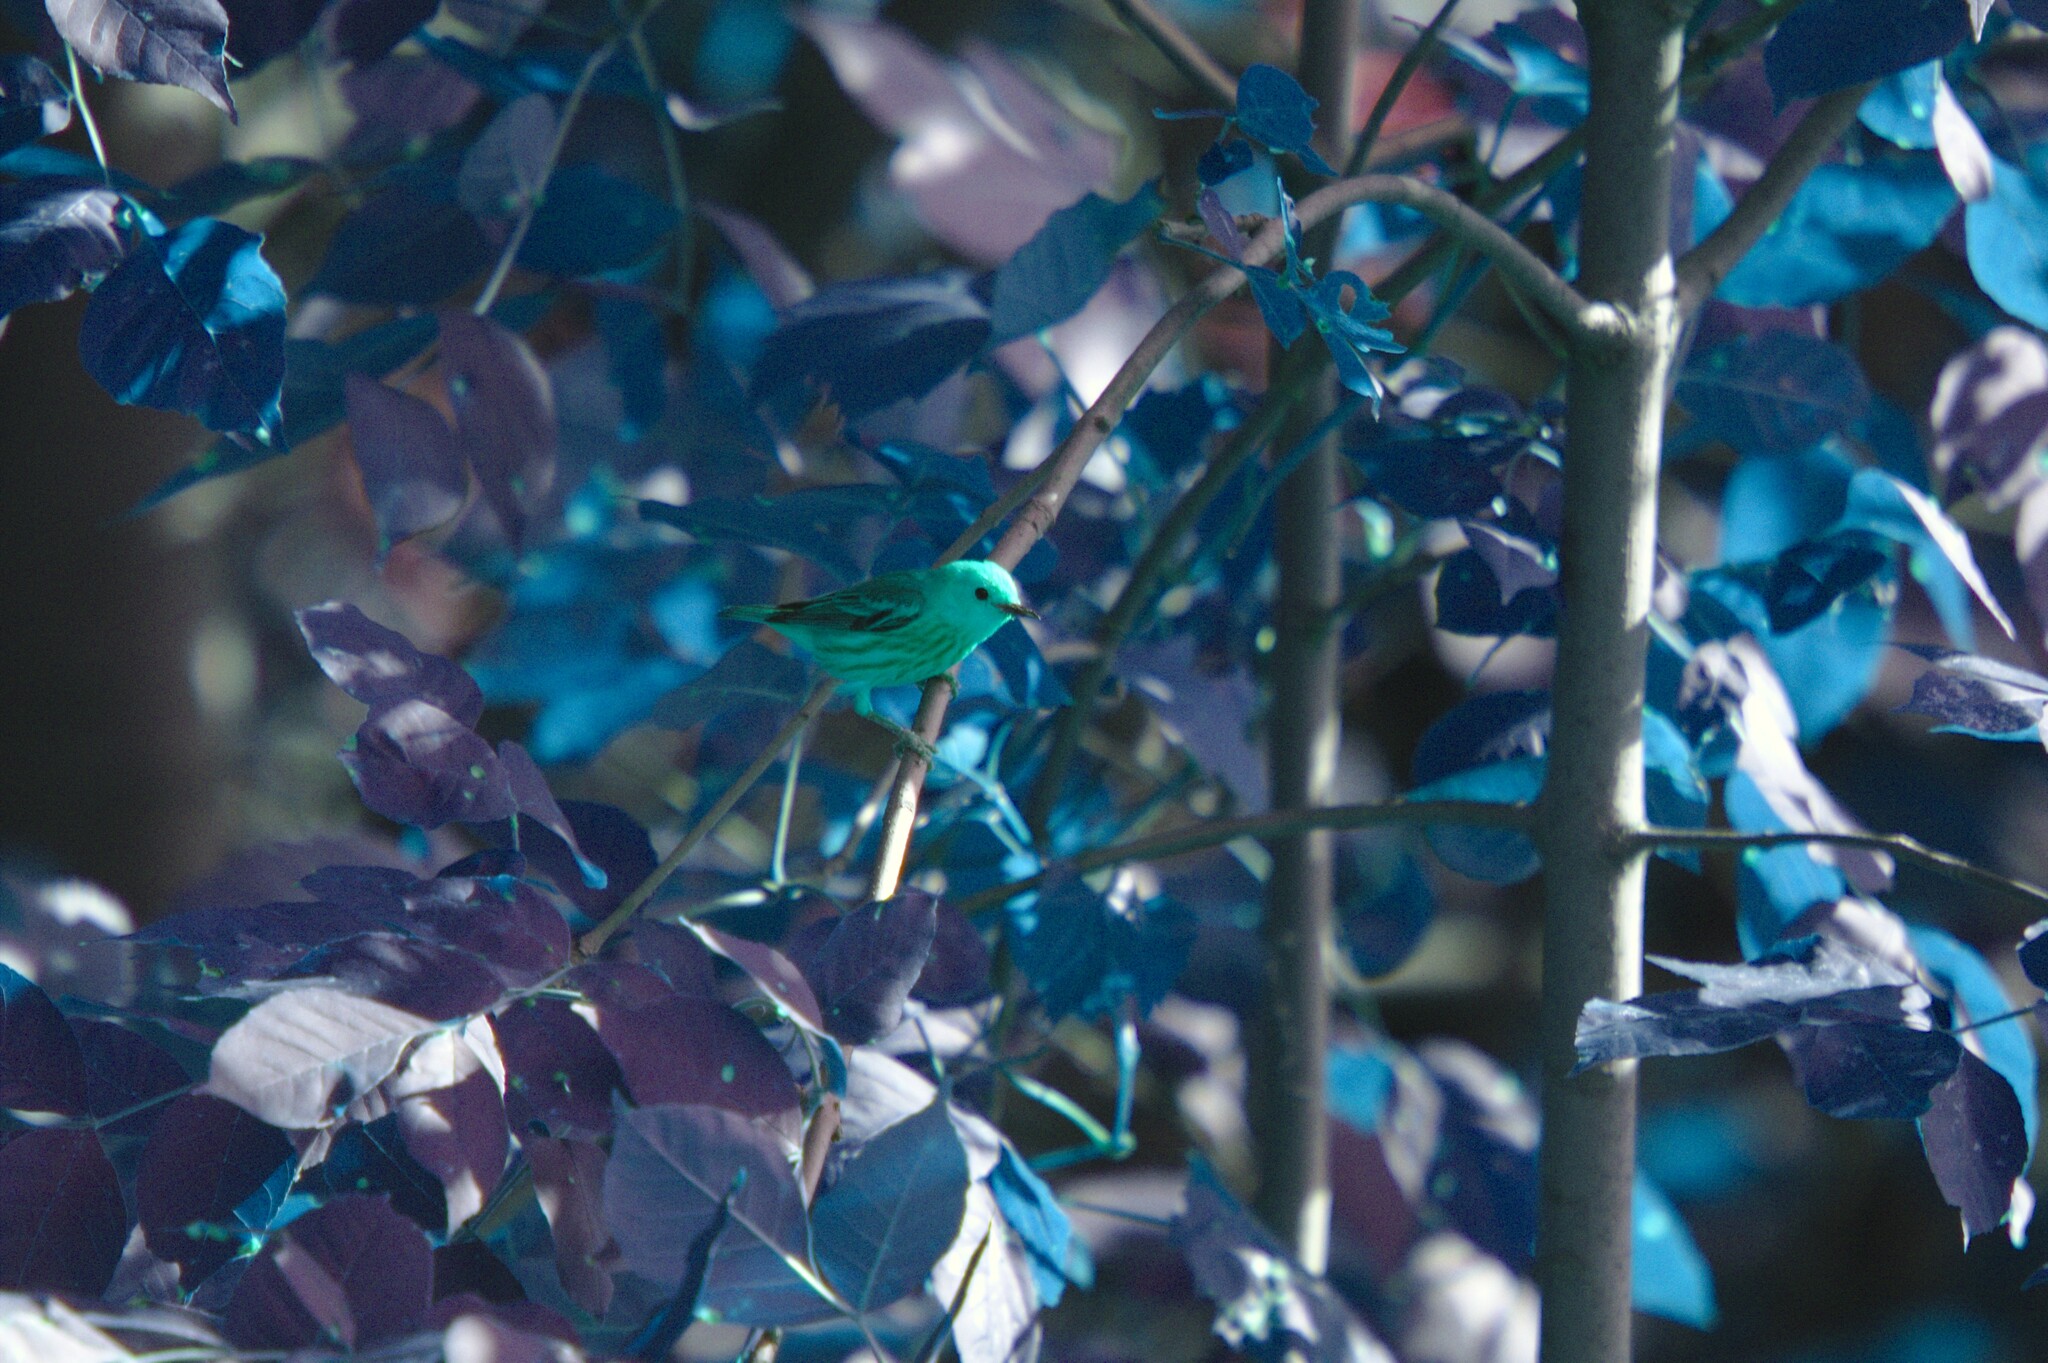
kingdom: Plantae
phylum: Tracheophyta
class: Magnoliopsida
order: Lamiales
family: Oleaceae
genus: Fraxinus
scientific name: Fraxinus pennsylvanica
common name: Green ash
